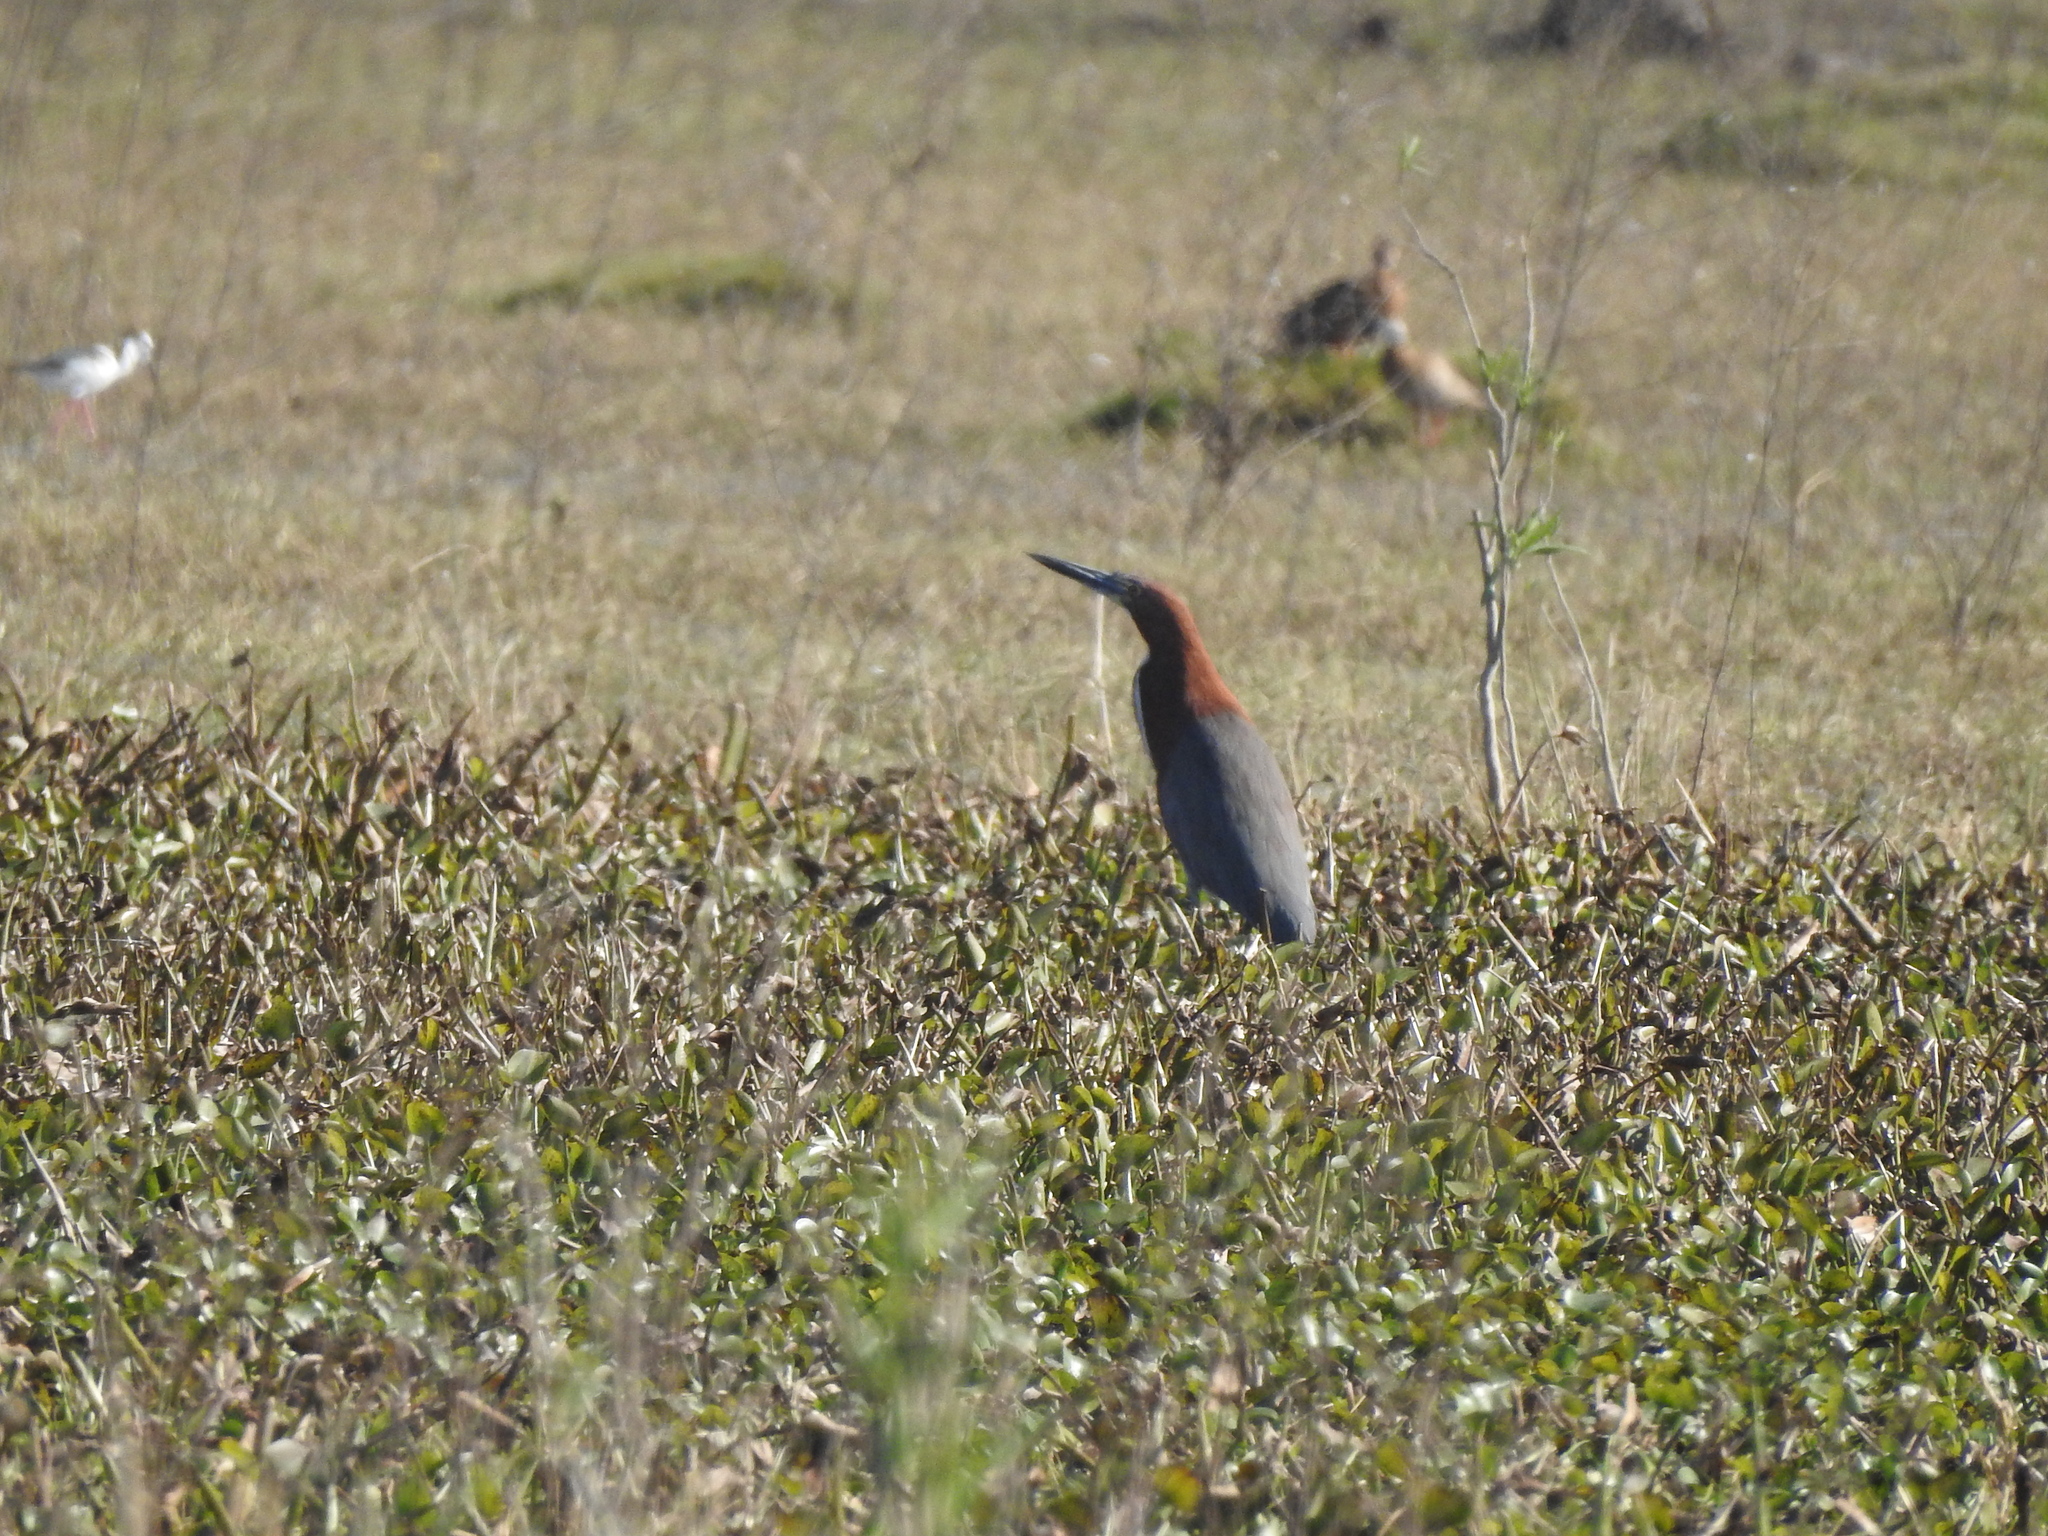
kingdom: Animalia
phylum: Chordata
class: Aves
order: Pelecaniformes
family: Ardeidae
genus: Tigrisoma
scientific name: Tigrisoma lineatum
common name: Rufescent tiger-heron
